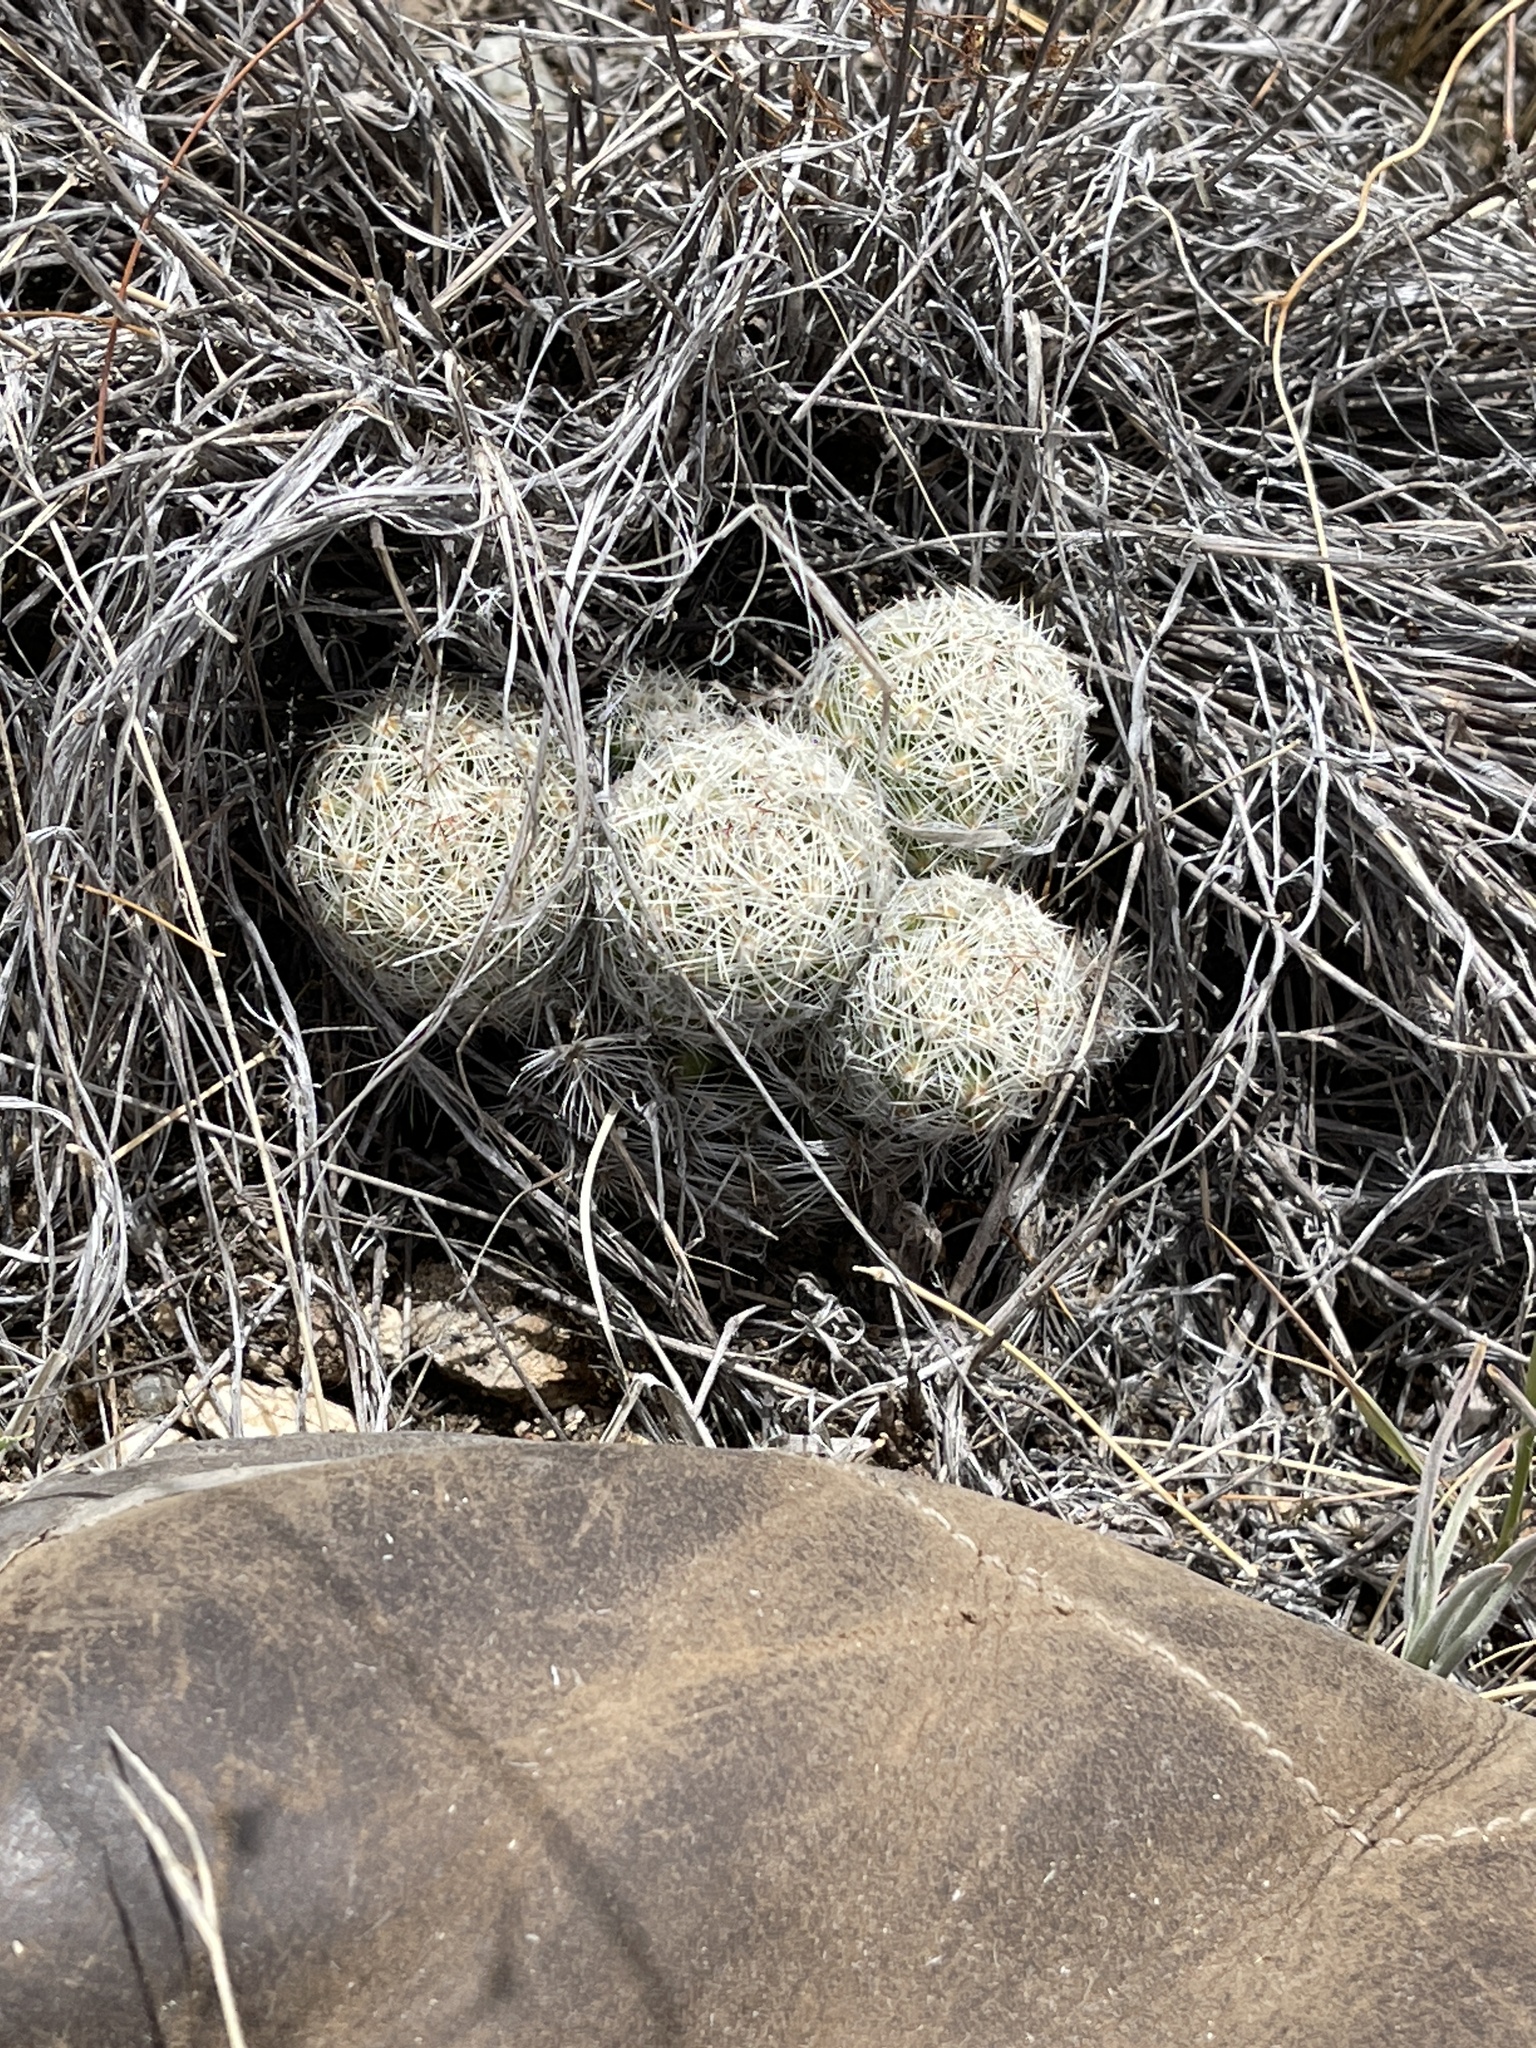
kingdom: Plantae
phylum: Tracheophyta
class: Magnoliopsida
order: Caryophyllales
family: Cactaceae
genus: Pelecyphora
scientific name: Pelecyphora vivipara
